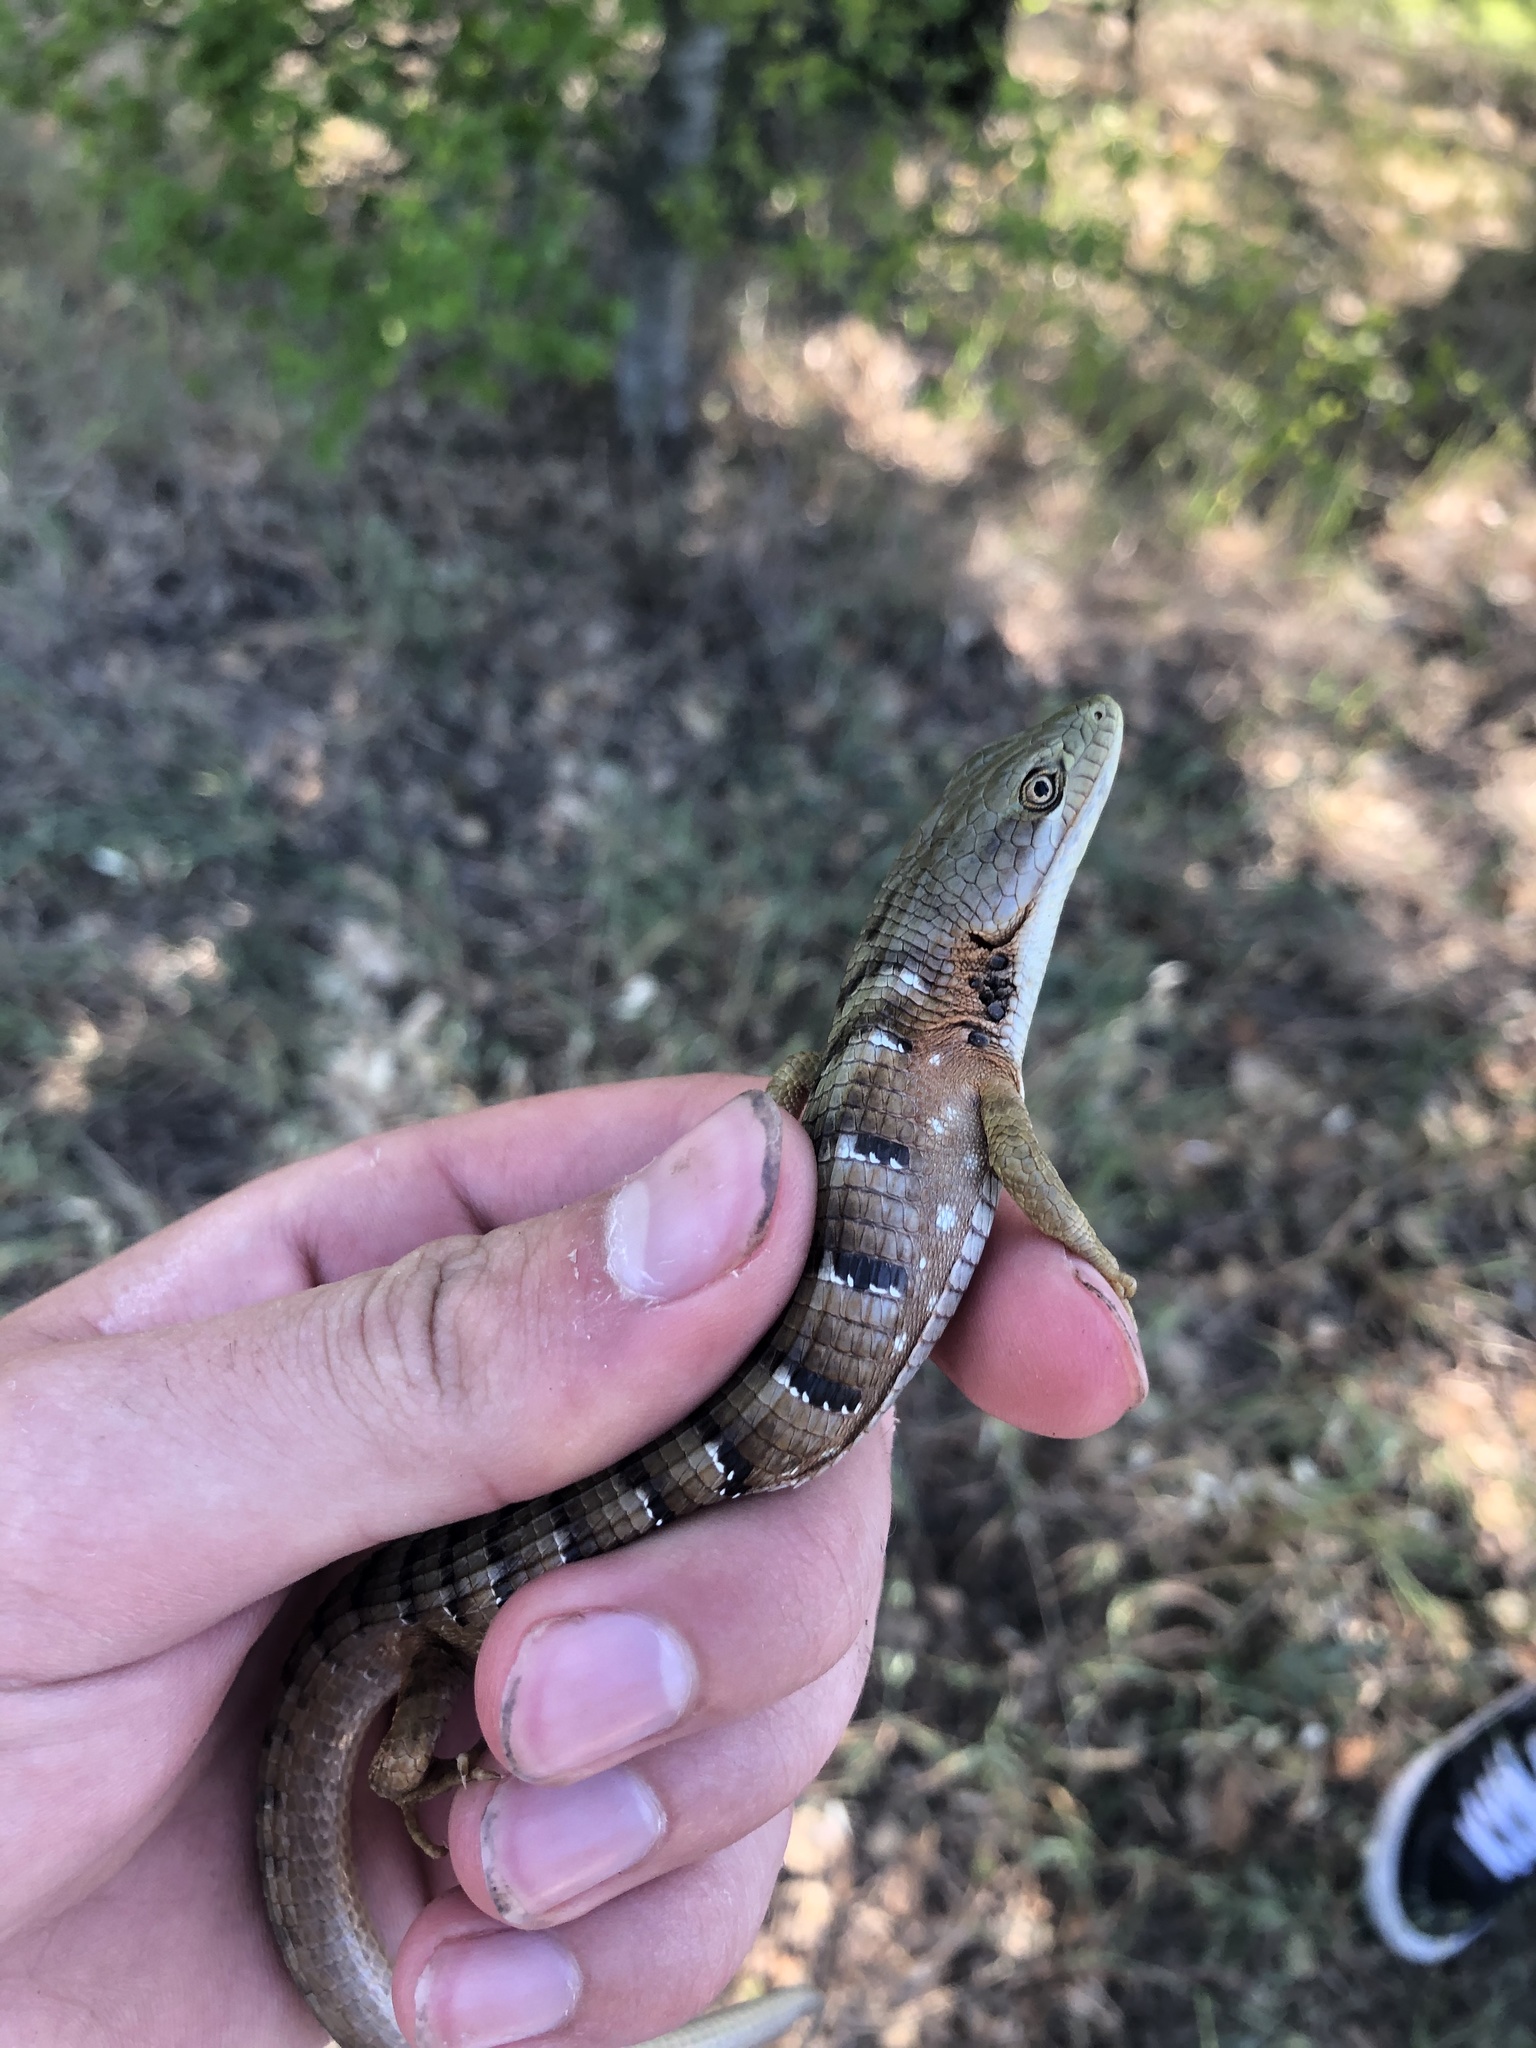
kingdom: Animalia
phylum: Chordata
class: Squamata
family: Anguidae
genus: Elgaria
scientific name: Elgaria multicarinata
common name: Southern alligator lizard
